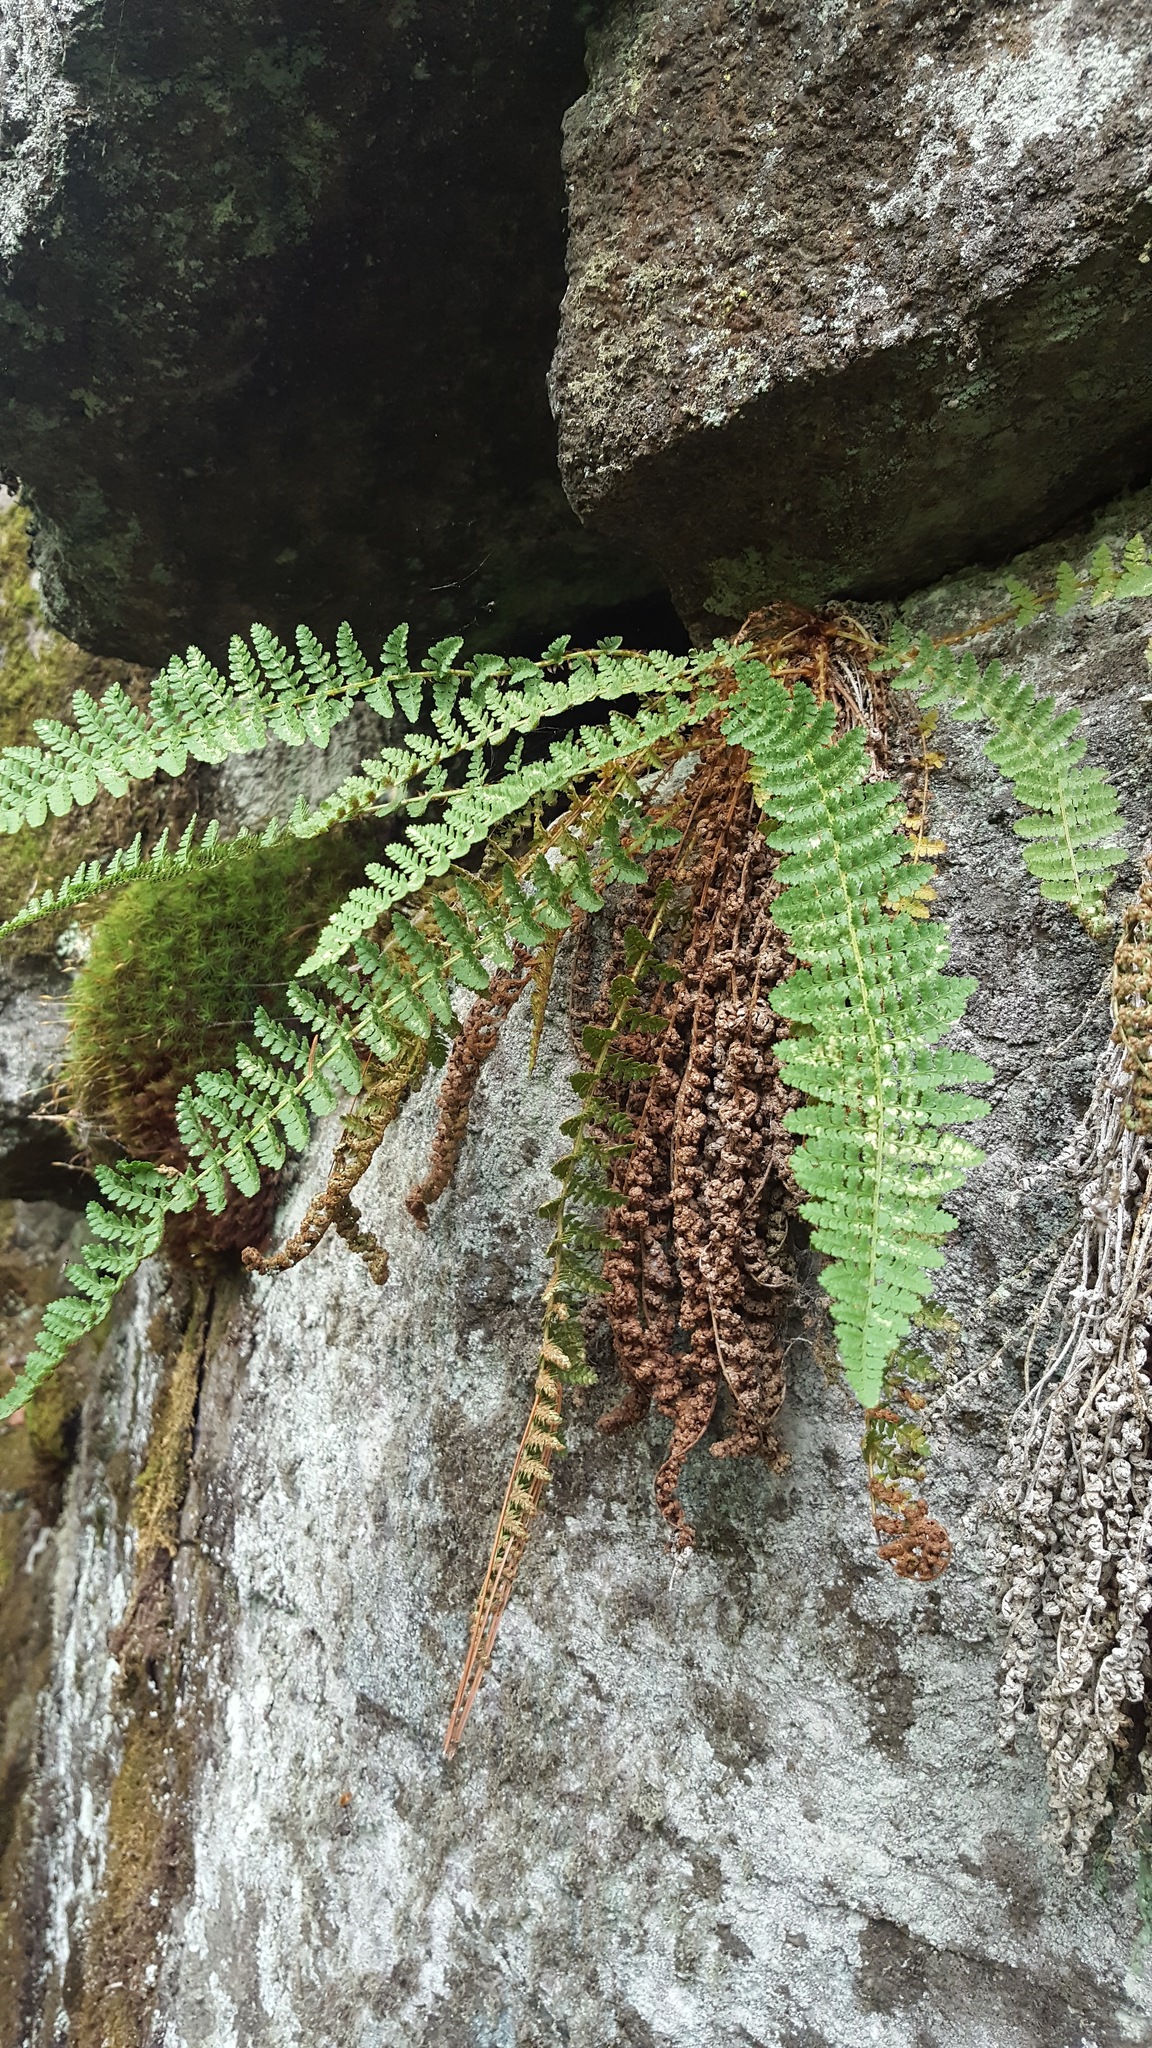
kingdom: Plantae
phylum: Tracheophyta
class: Polypodiopsida
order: Polypodiales
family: Dryopteridaceae
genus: Dryopteris
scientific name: Dryopteris fragrans
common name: Fragrant wood fern
